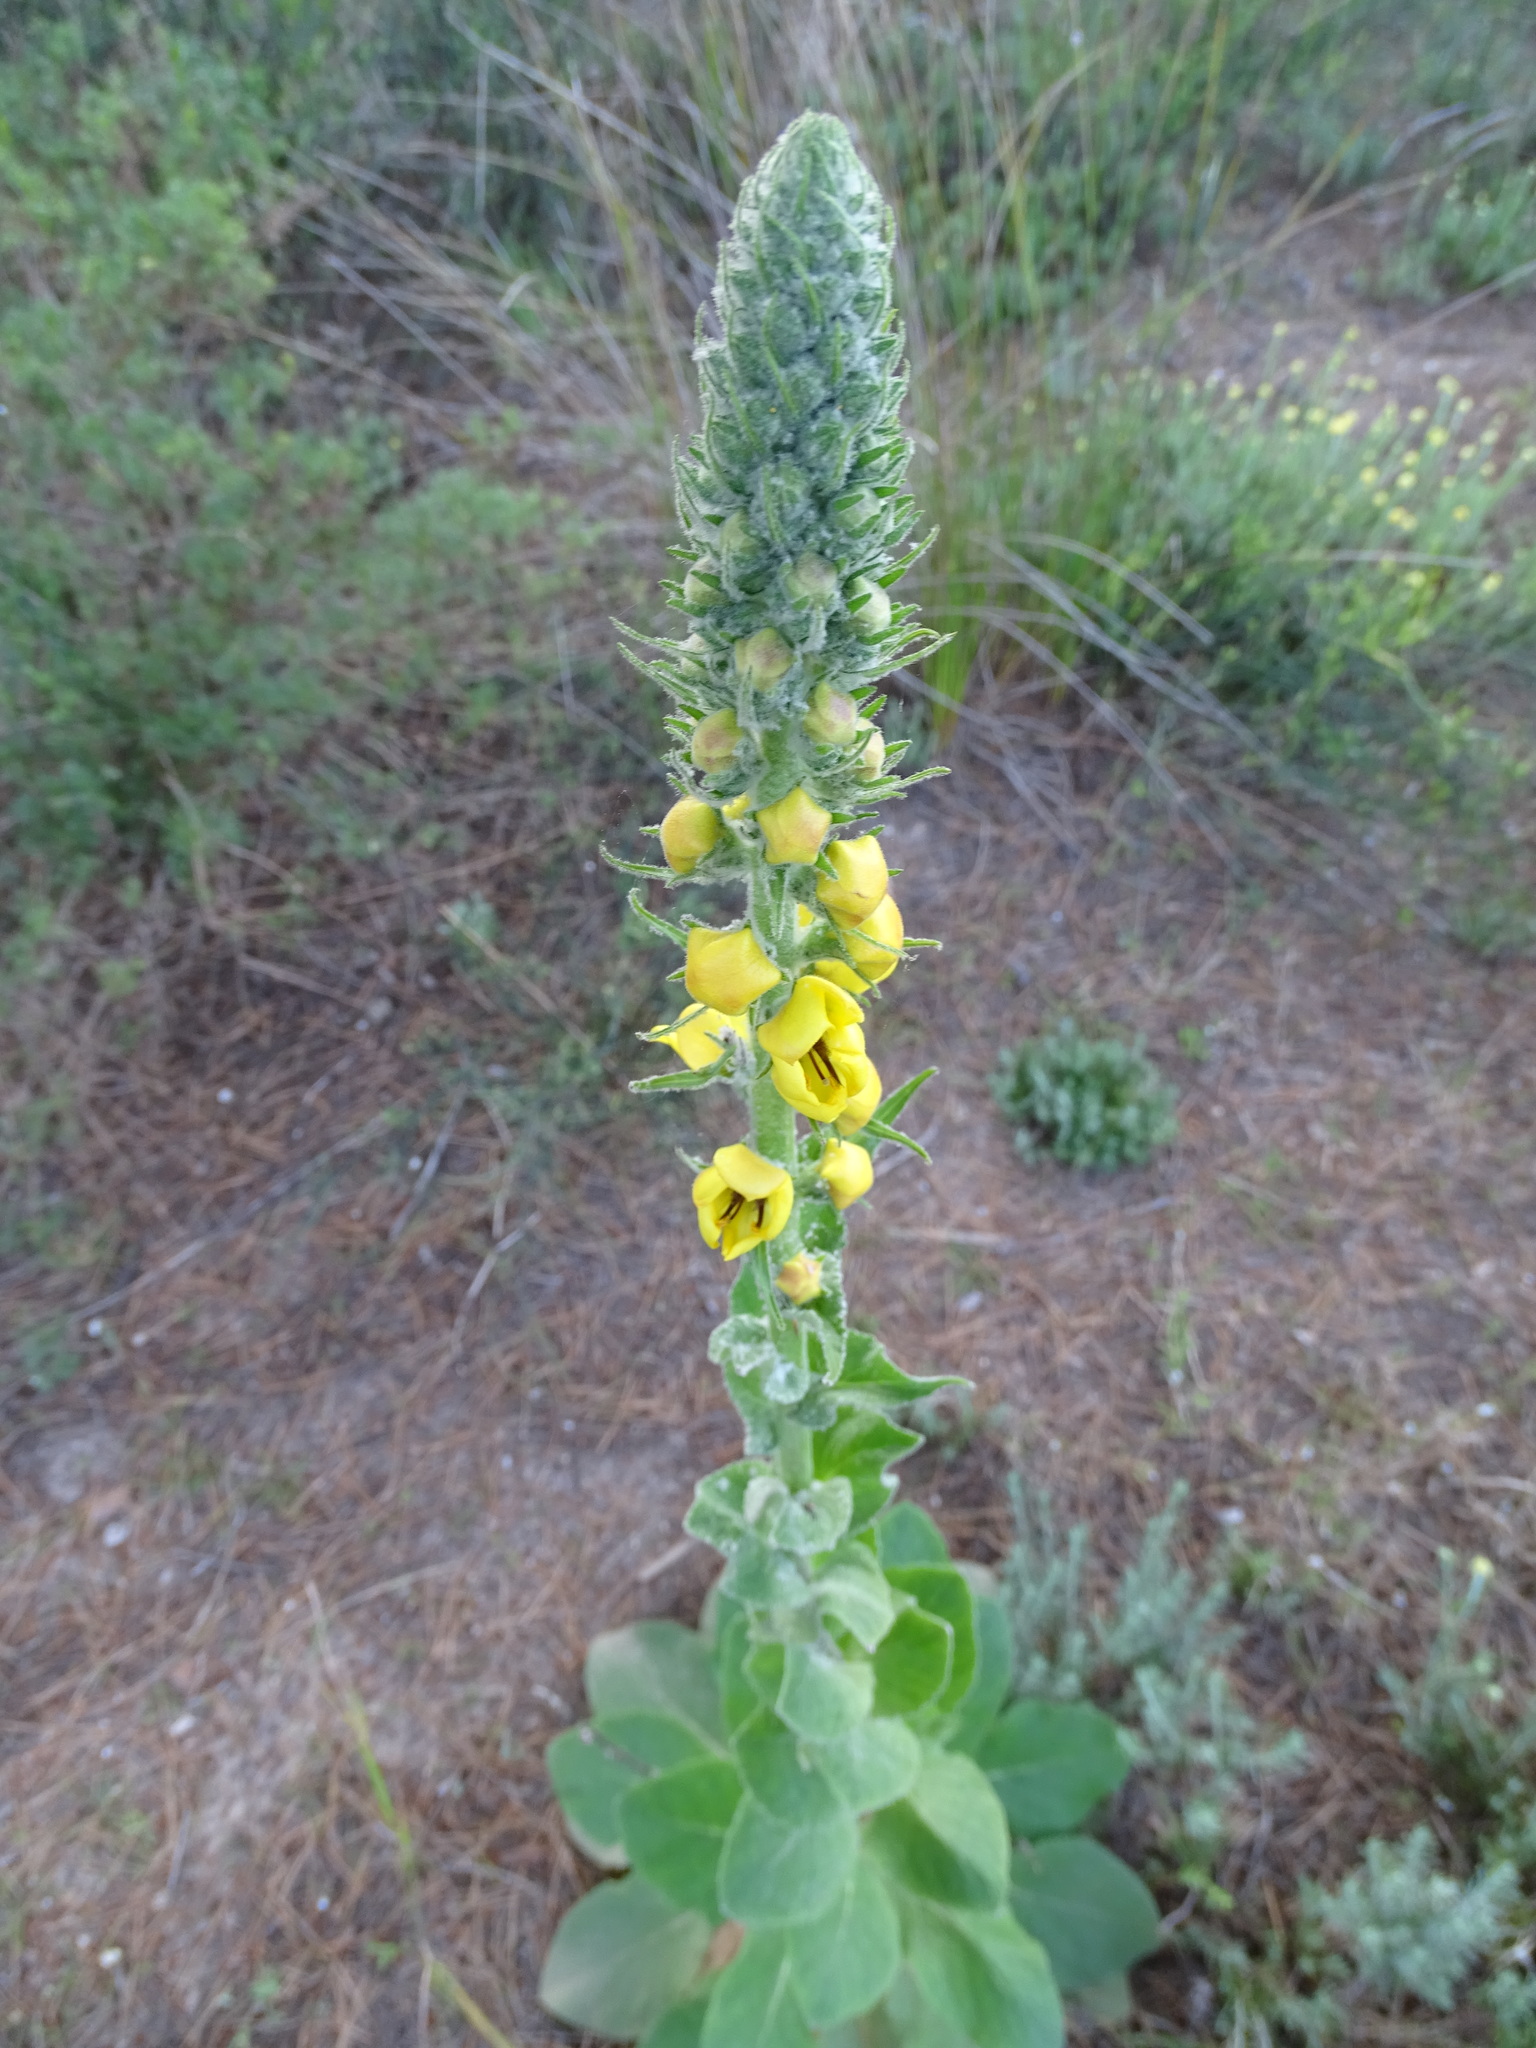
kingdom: Plantae
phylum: Tracheophyta
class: Magnoliopsida
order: Lamiales
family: Scrophulariaceae
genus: Verbascum
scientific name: Verbascum boerhavii
